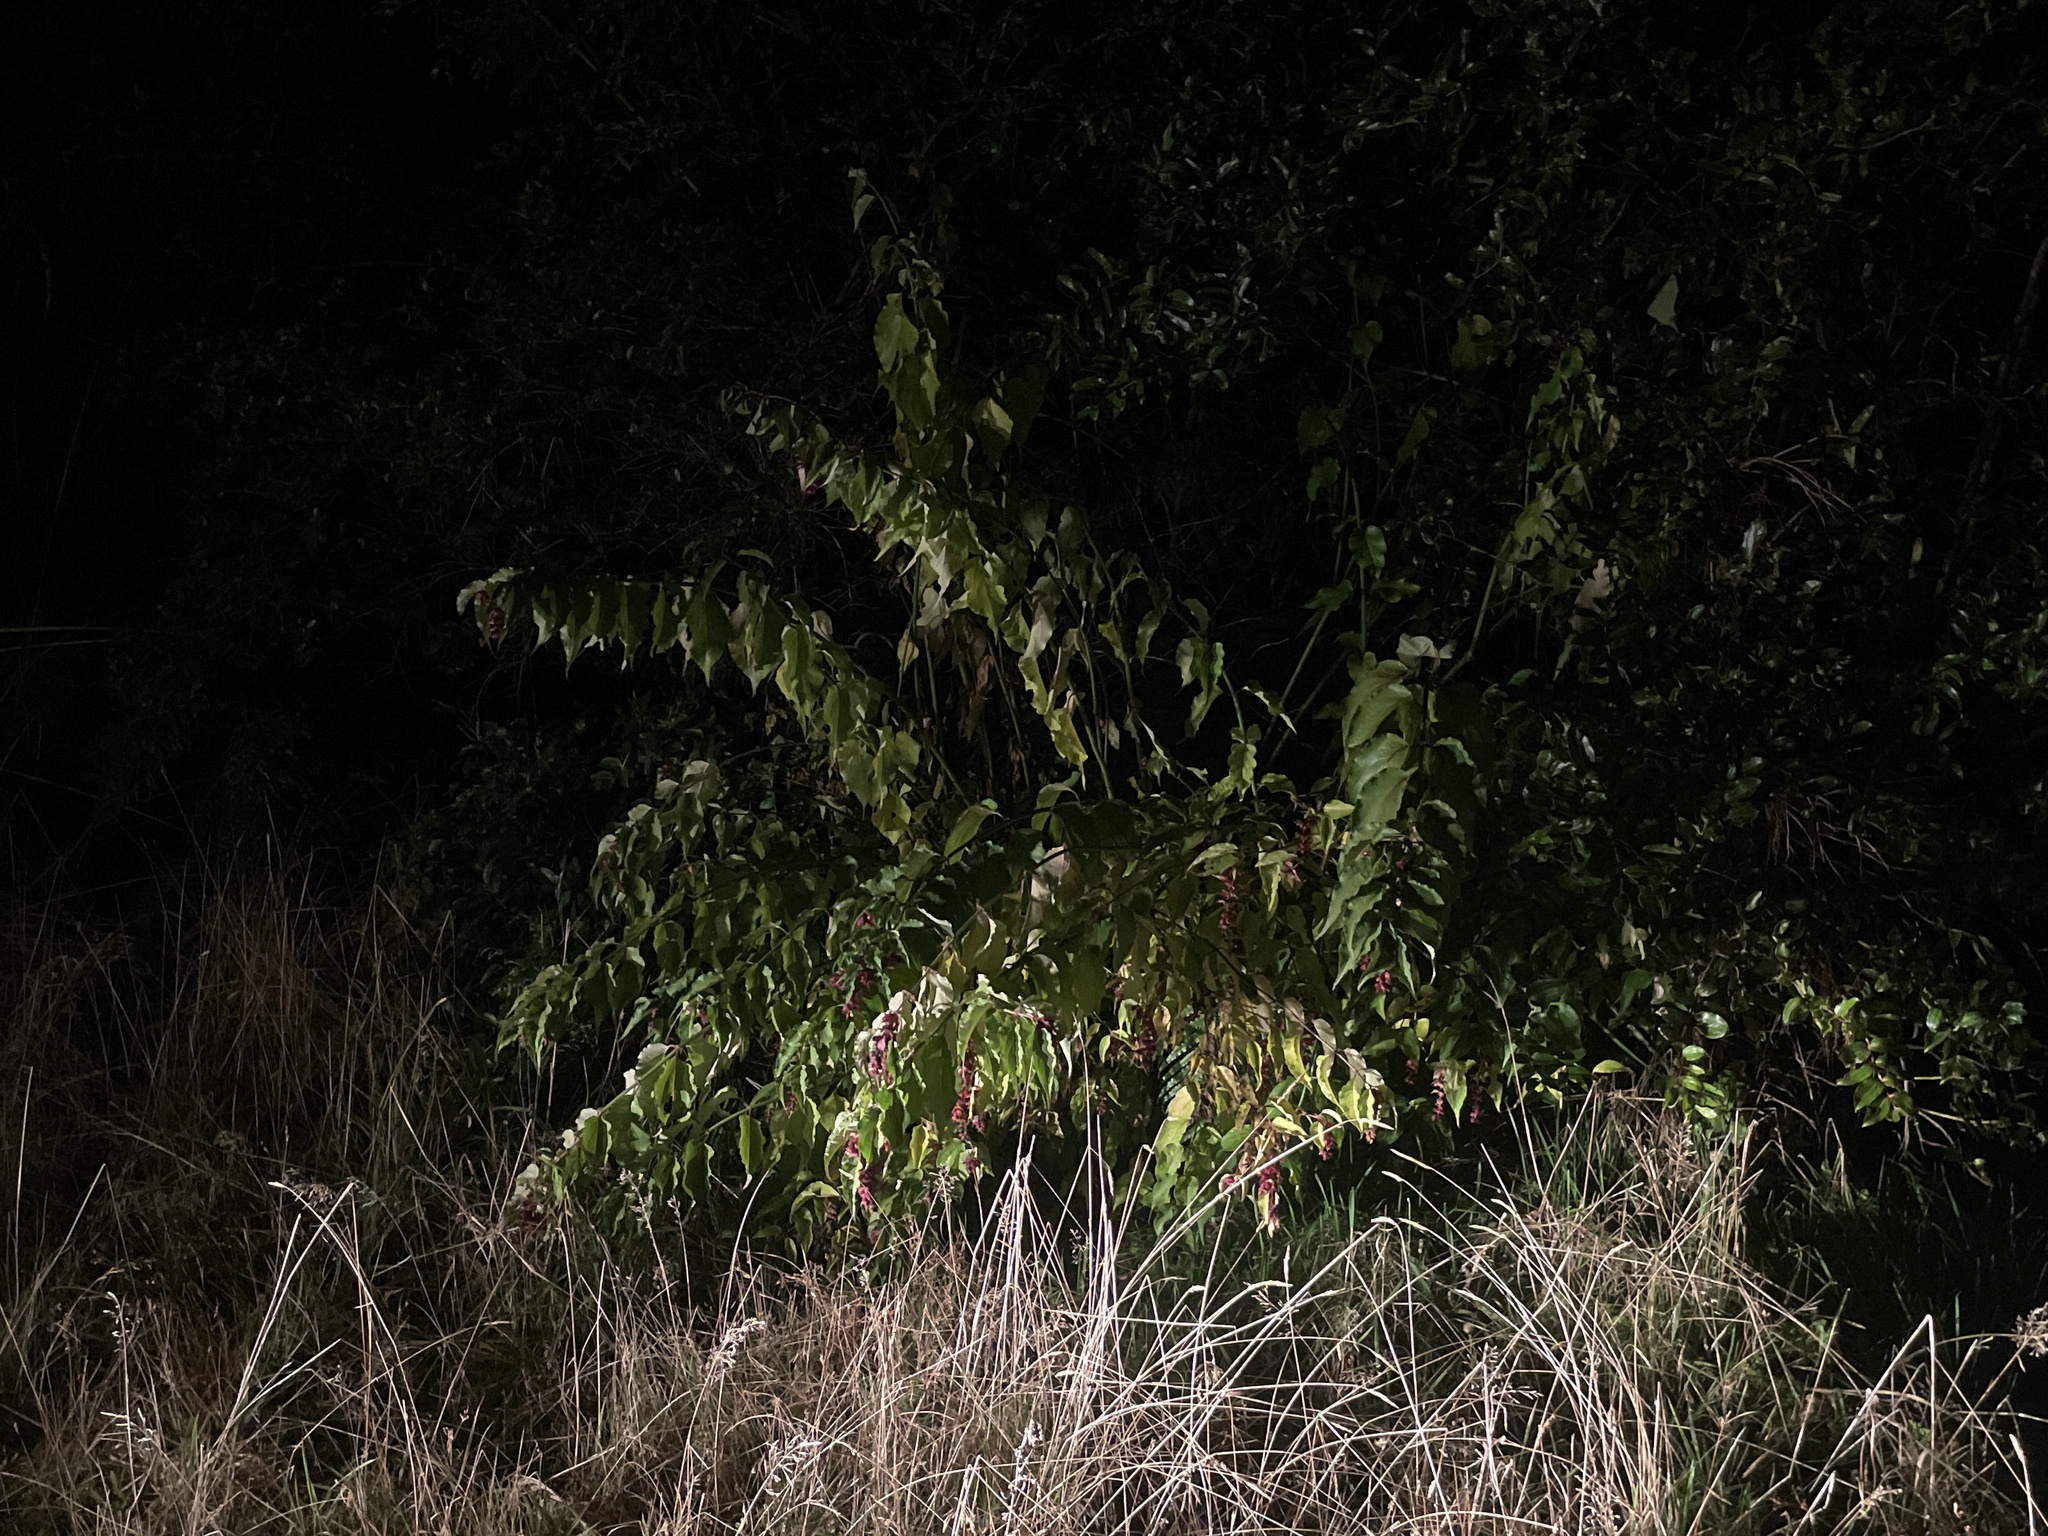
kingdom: Plantae
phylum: Tracheophyta
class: Magnoliopsida
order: Dipsacales
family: Caprifoliaceae
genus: Leycesteria
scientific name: Leycesteria formosa
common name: Himalayan honeysuckle
